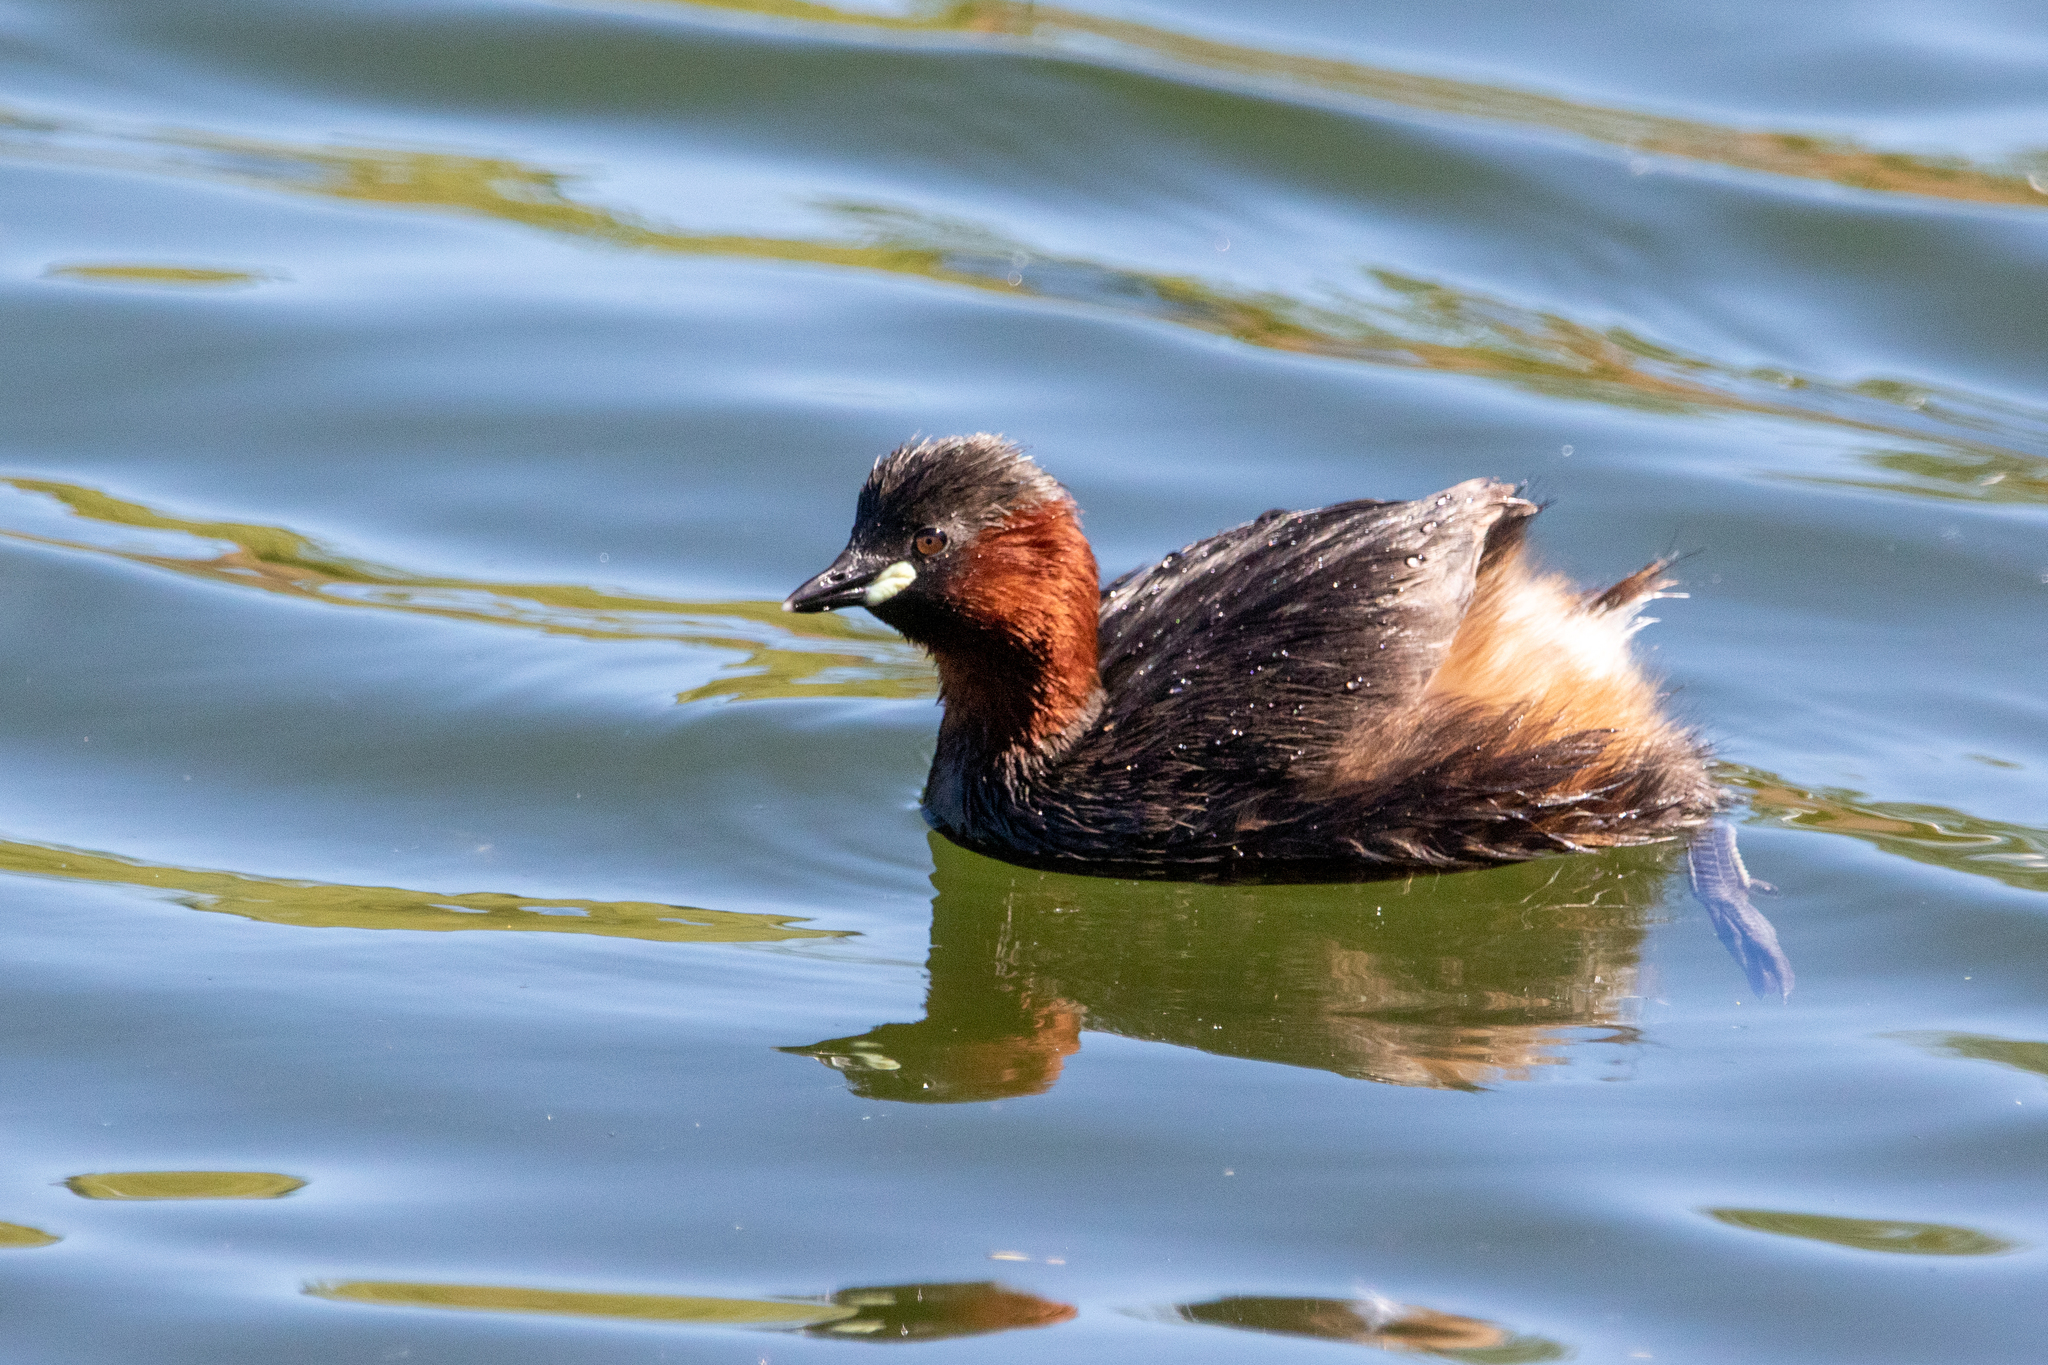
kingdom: Animalia
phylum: Chordata
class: Aves
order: Podicipediformes
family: Podicipedidae
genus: Tachybaptus
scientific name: Tachybaptus ruficollis
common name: Little grebe
